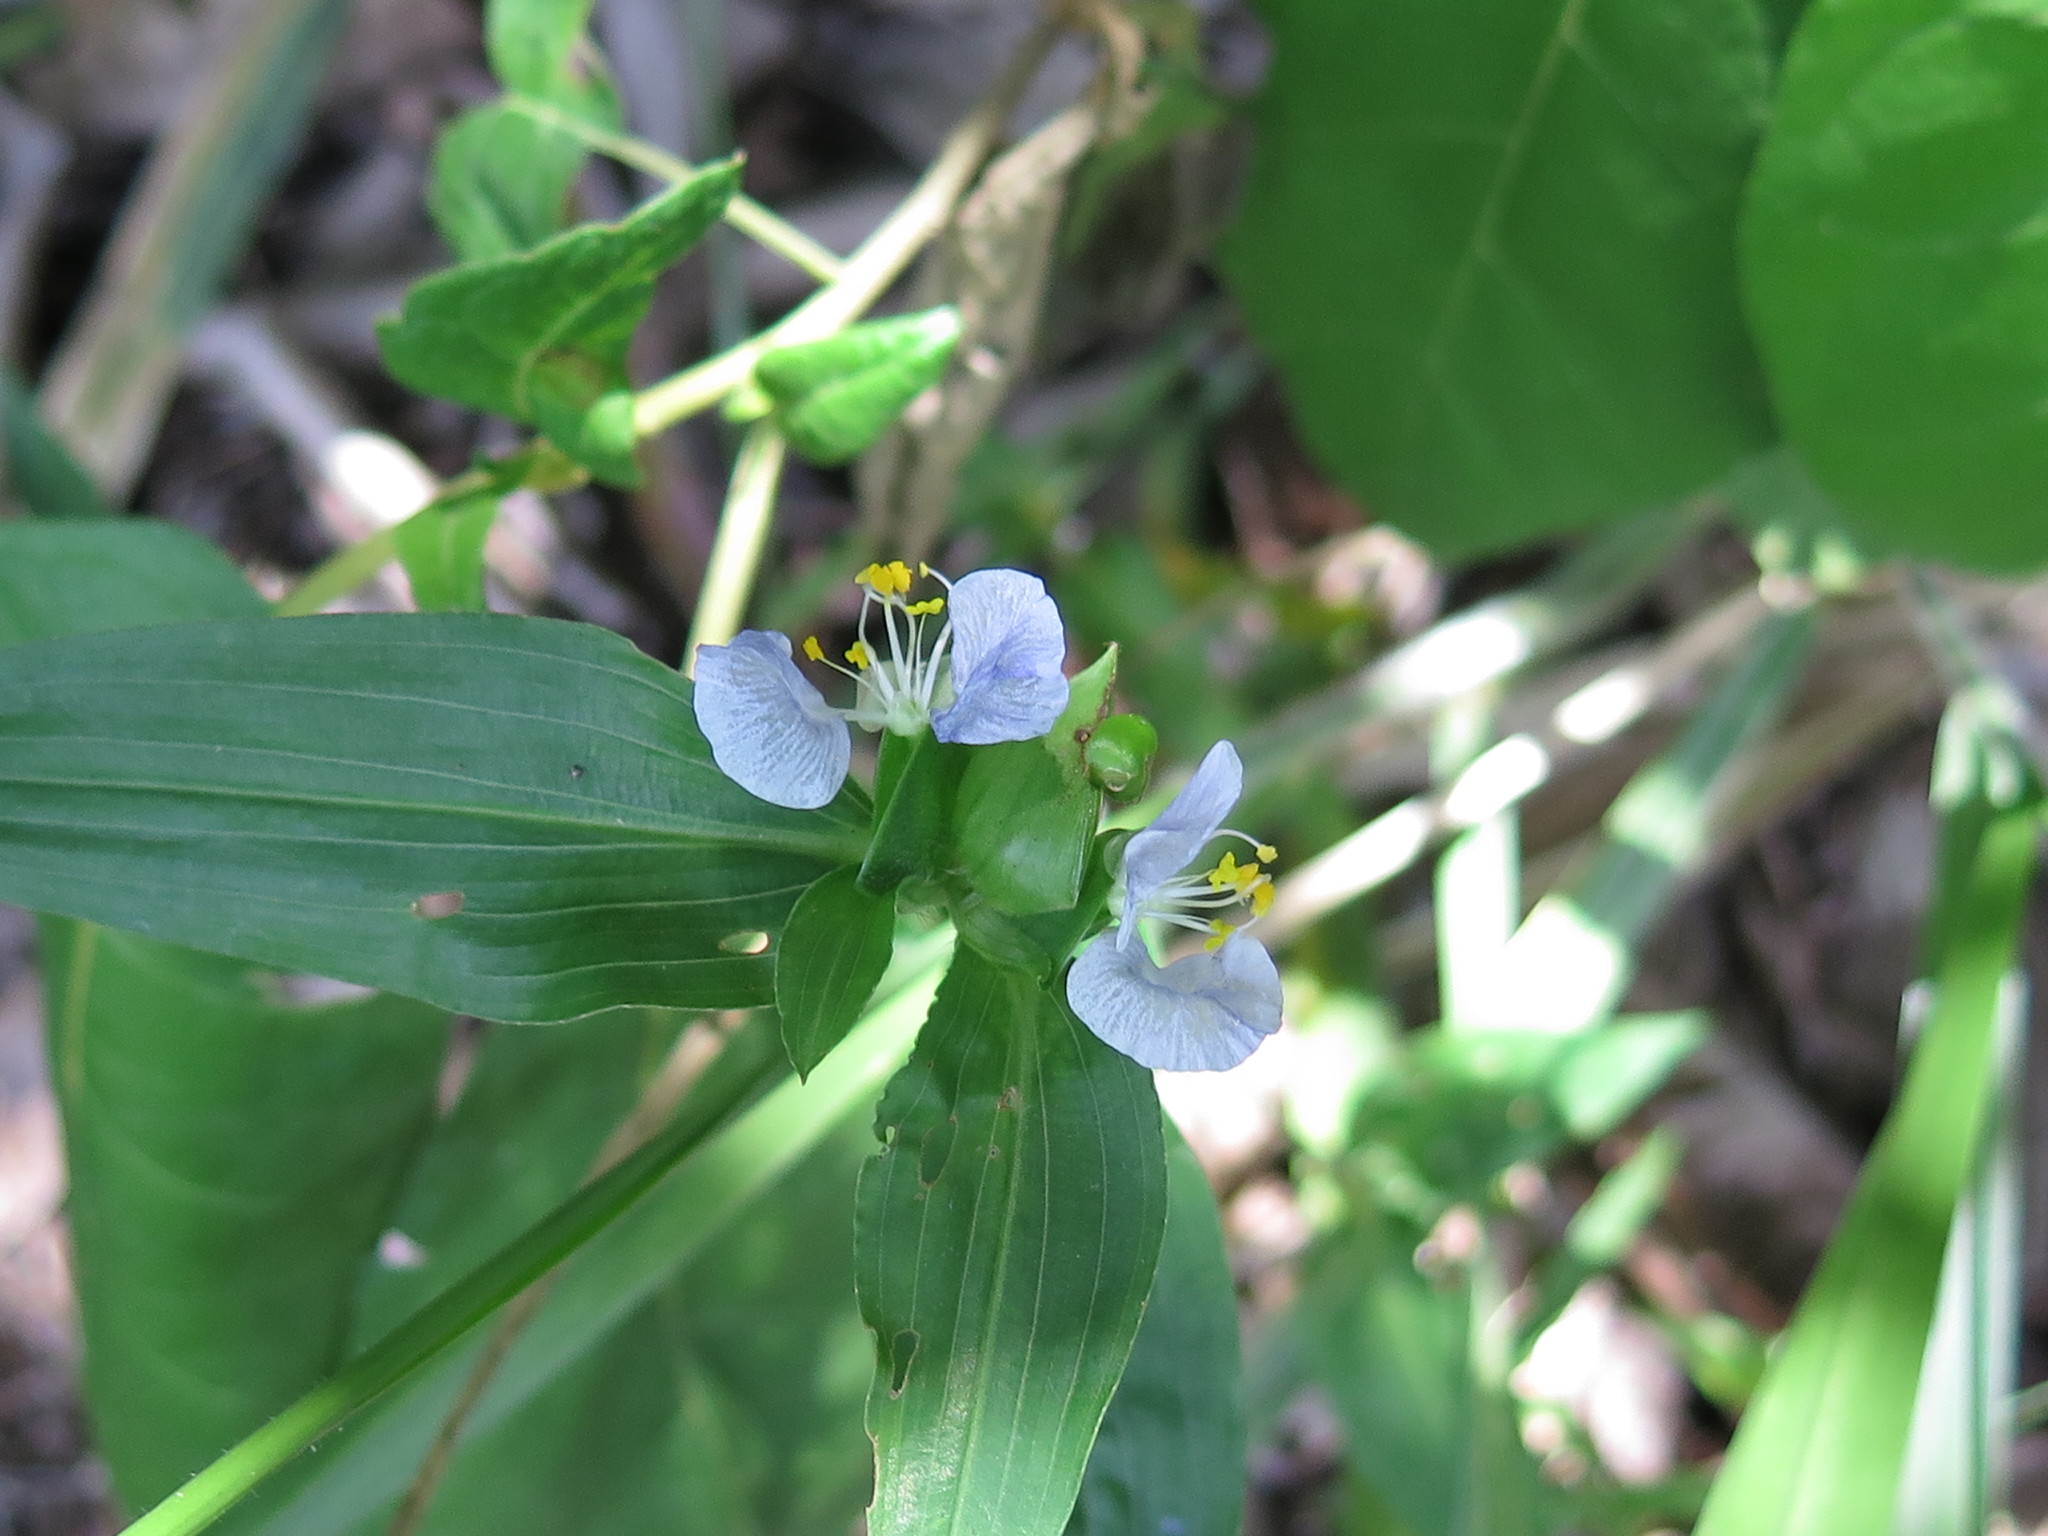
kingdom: Plantae
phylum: Tracheophyta
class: Liliopsida
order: Commelinales
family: Commelinaceae
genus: Commelina
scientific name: Commelina erecta
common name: Blousel blommetjie
